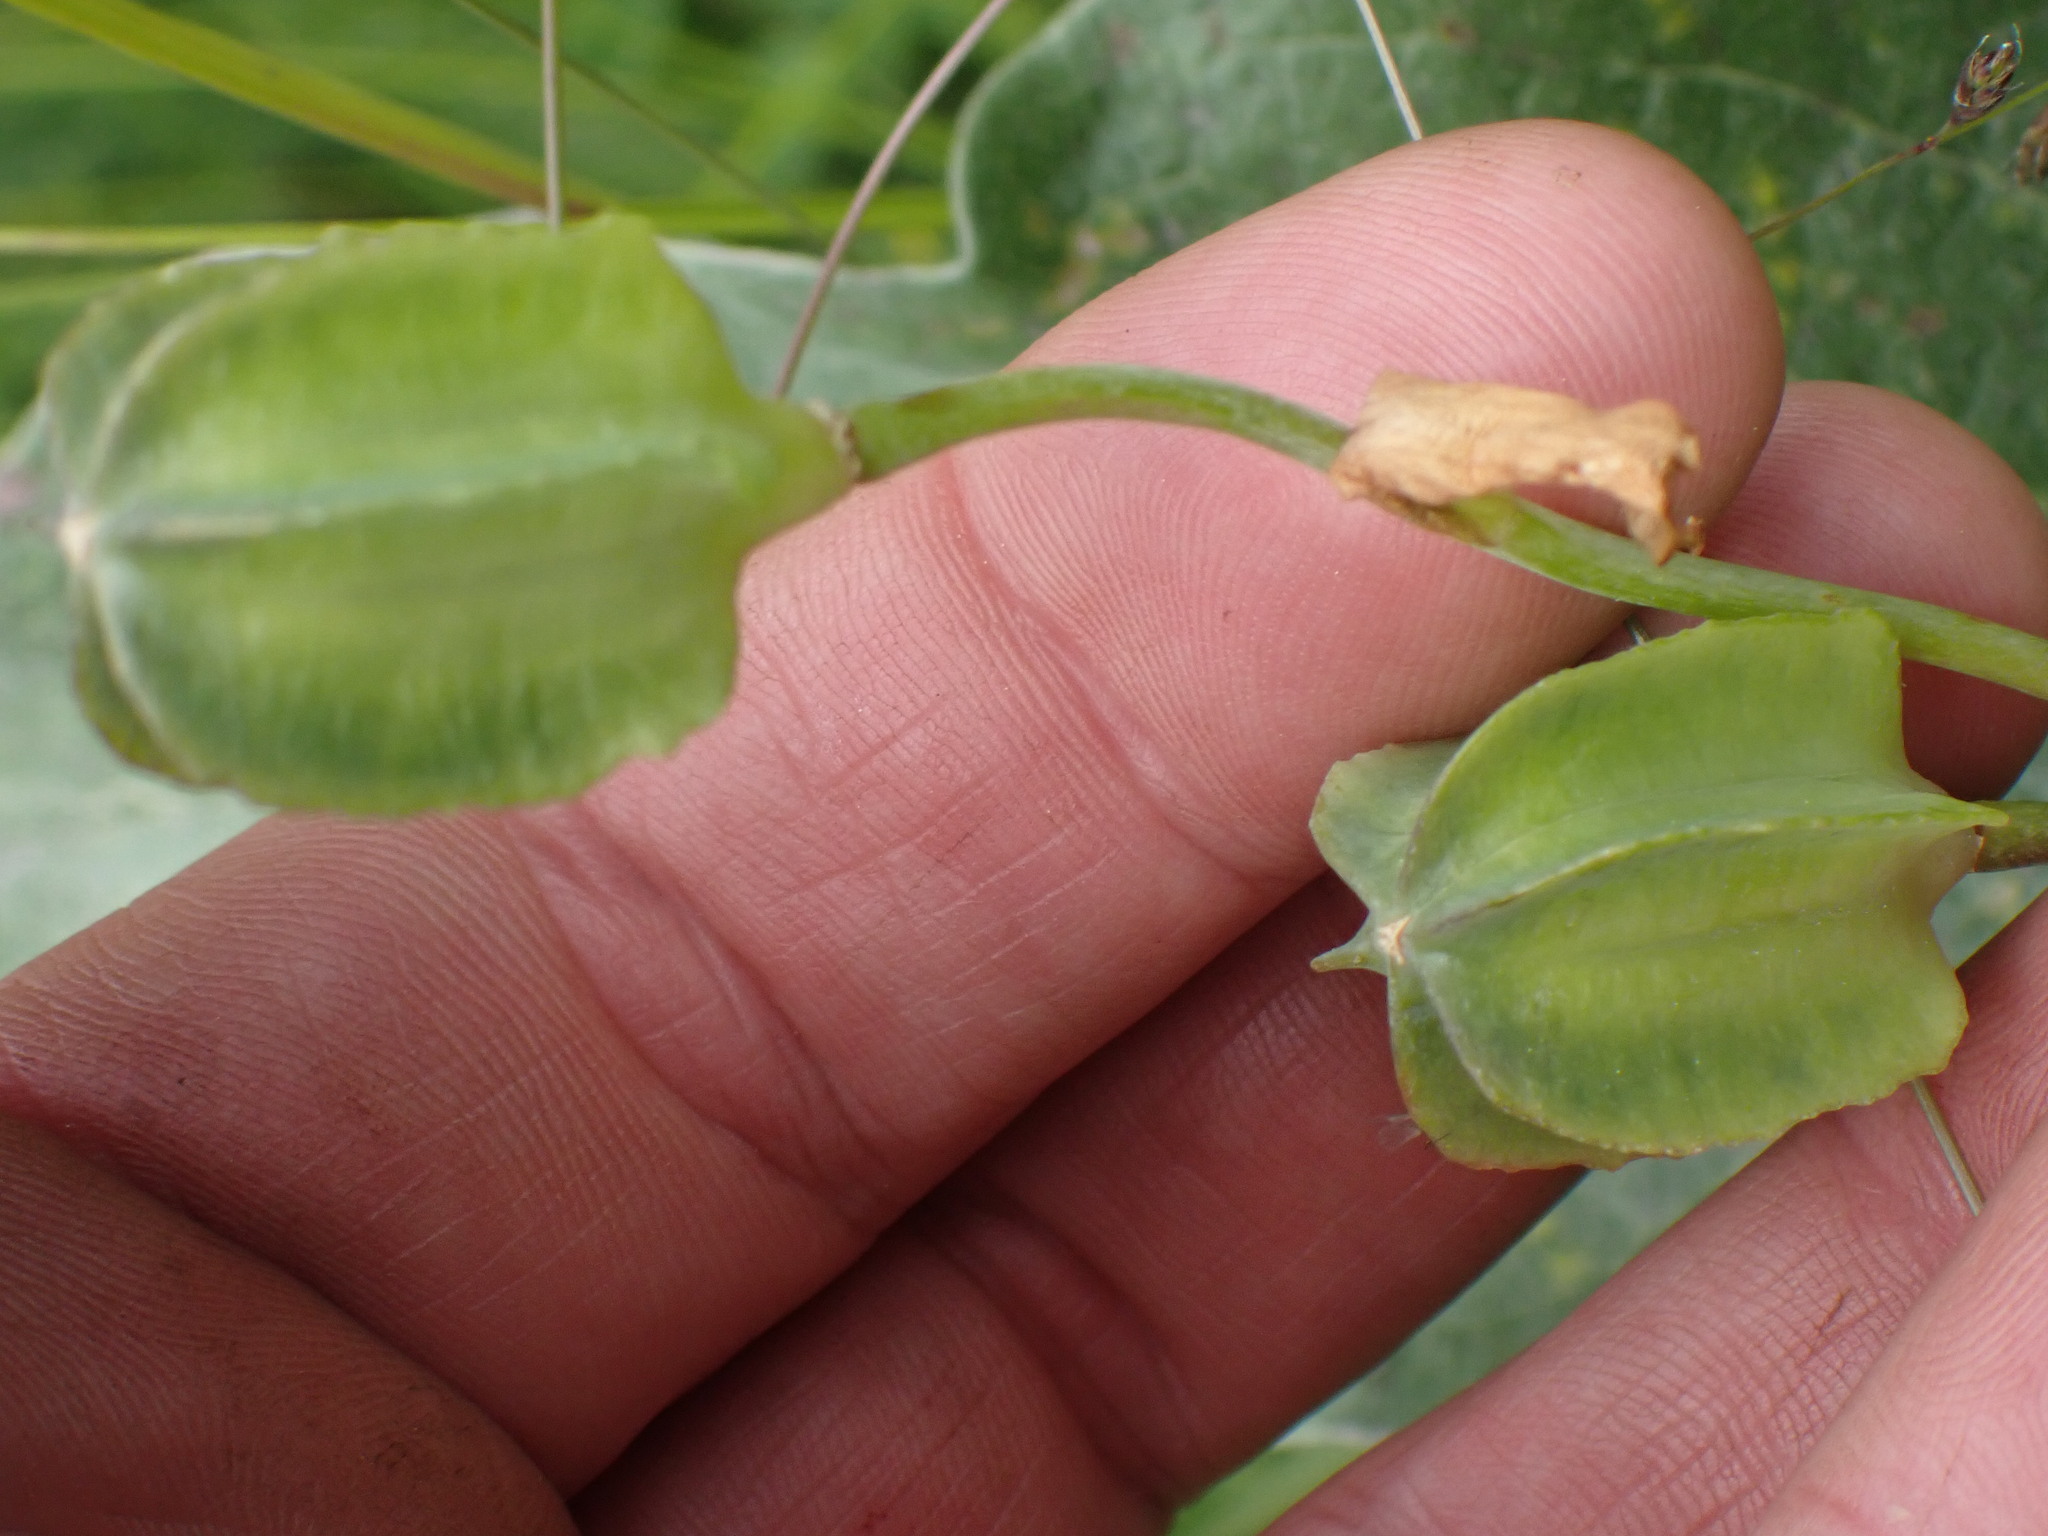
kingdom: Plantae
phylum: Tracheophyta
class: Liliopsida
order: Liliales
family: Liliaceae
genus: Fritillaria
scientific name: Fritillaria affinis
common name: Ojai fritillary
